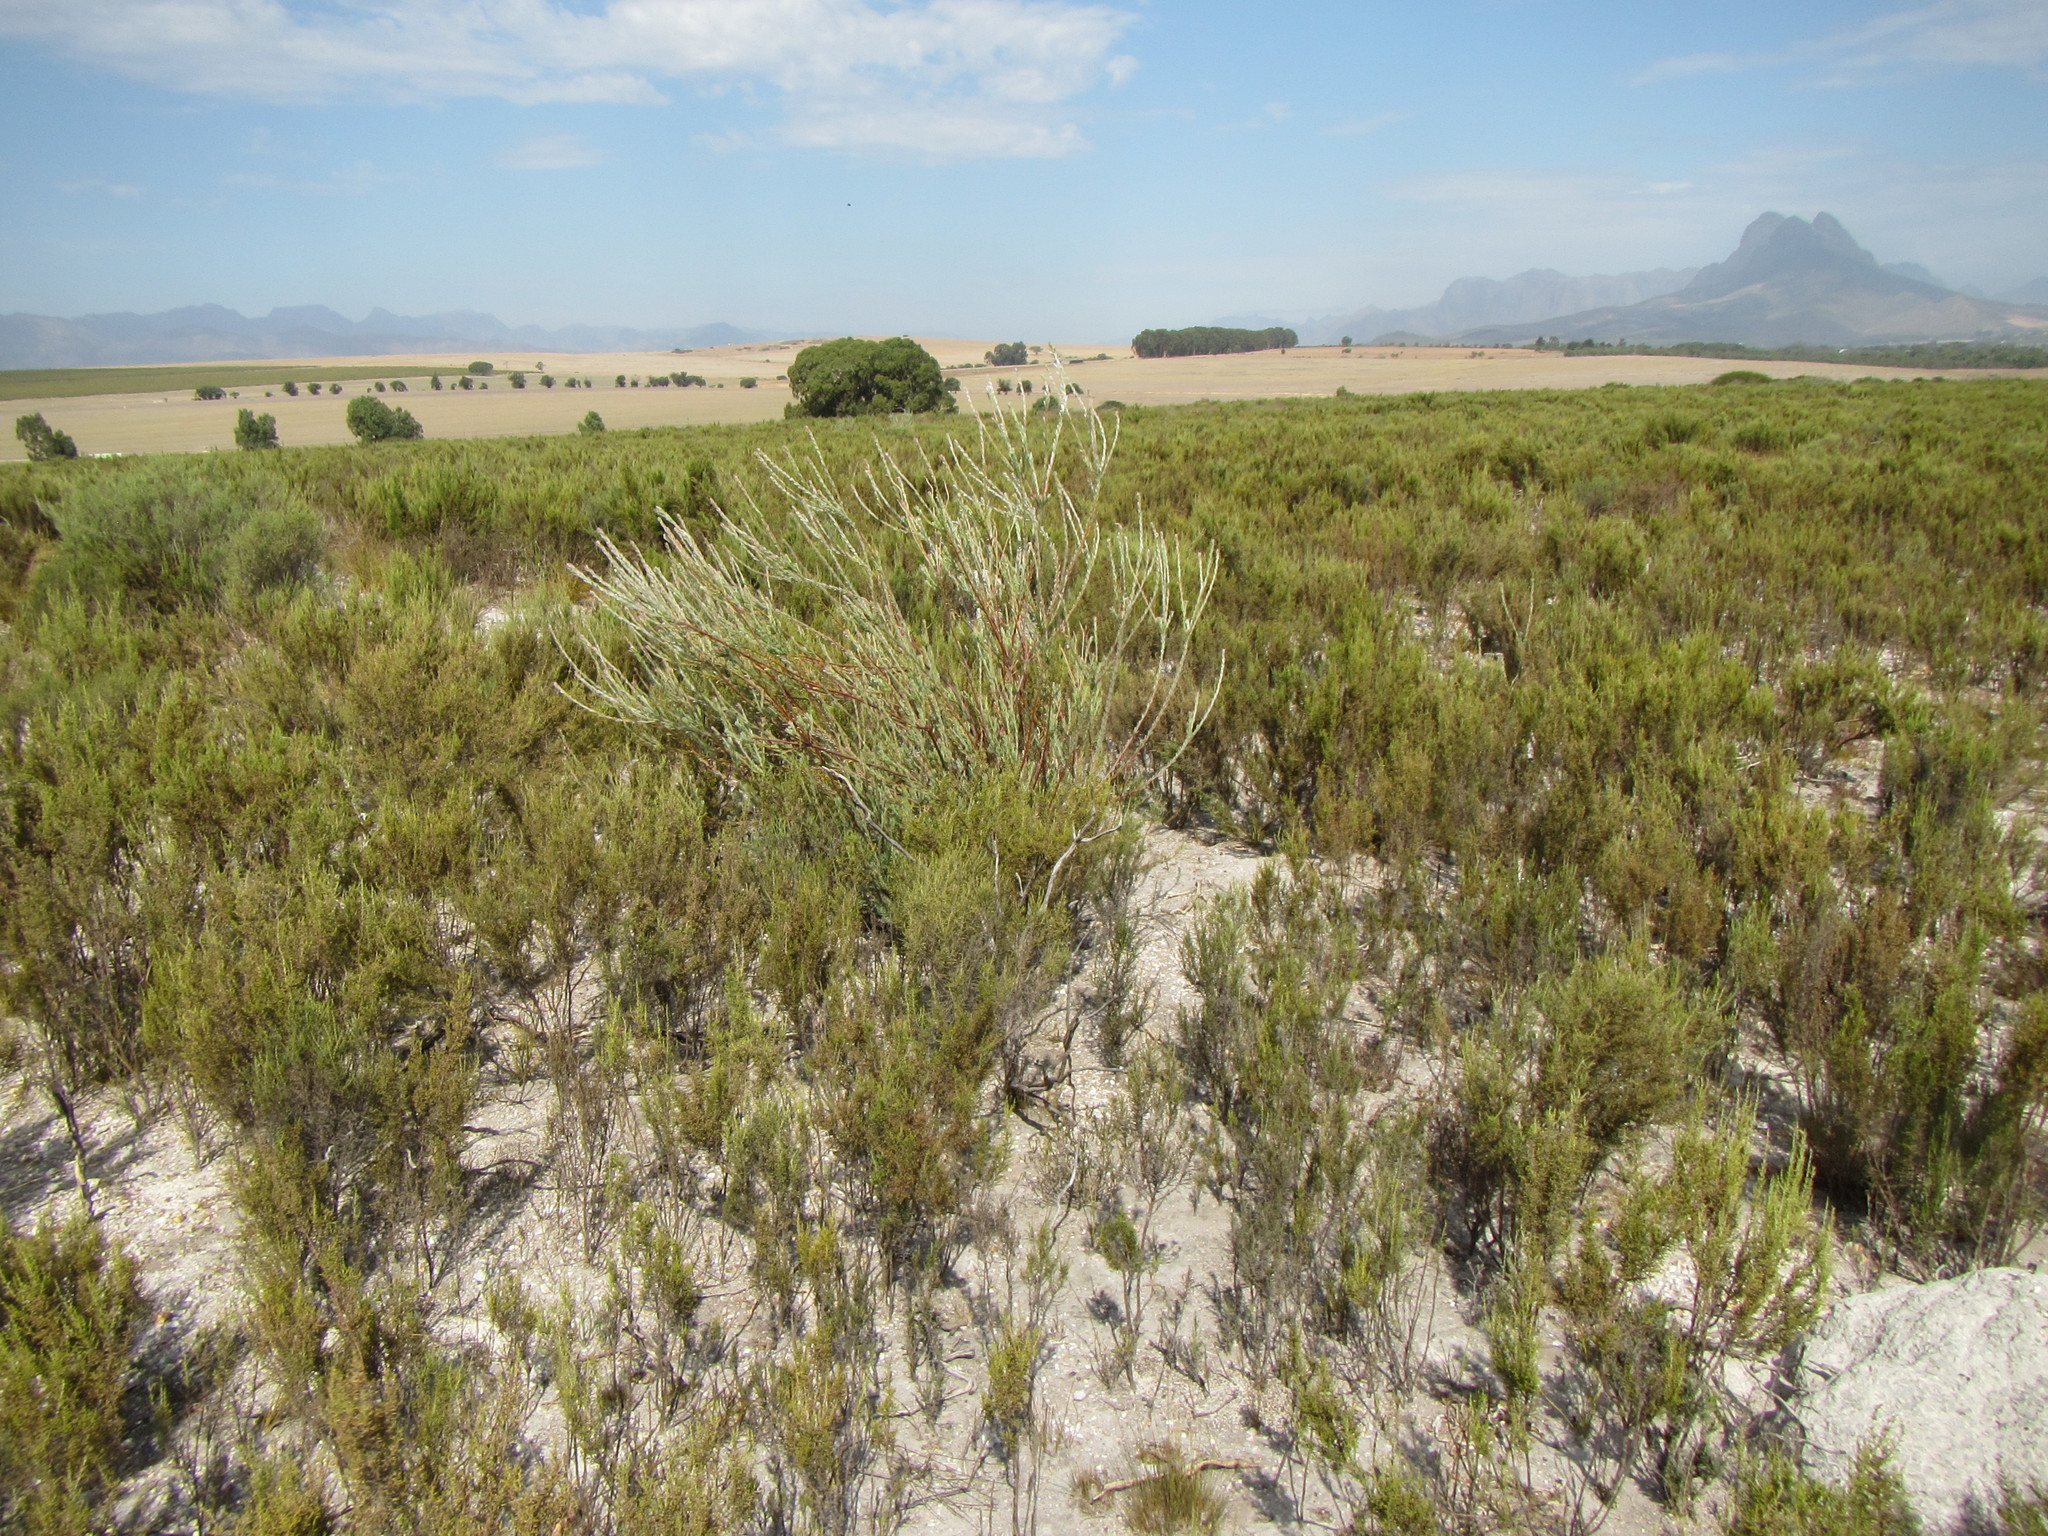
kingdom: Plantae
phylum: Tracheophyta
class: Magnoliopsida
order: Proteales
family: Proteaceae
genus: Leucadendron
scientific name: Leucadendron verticillatum
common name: Klapmuts conebush
